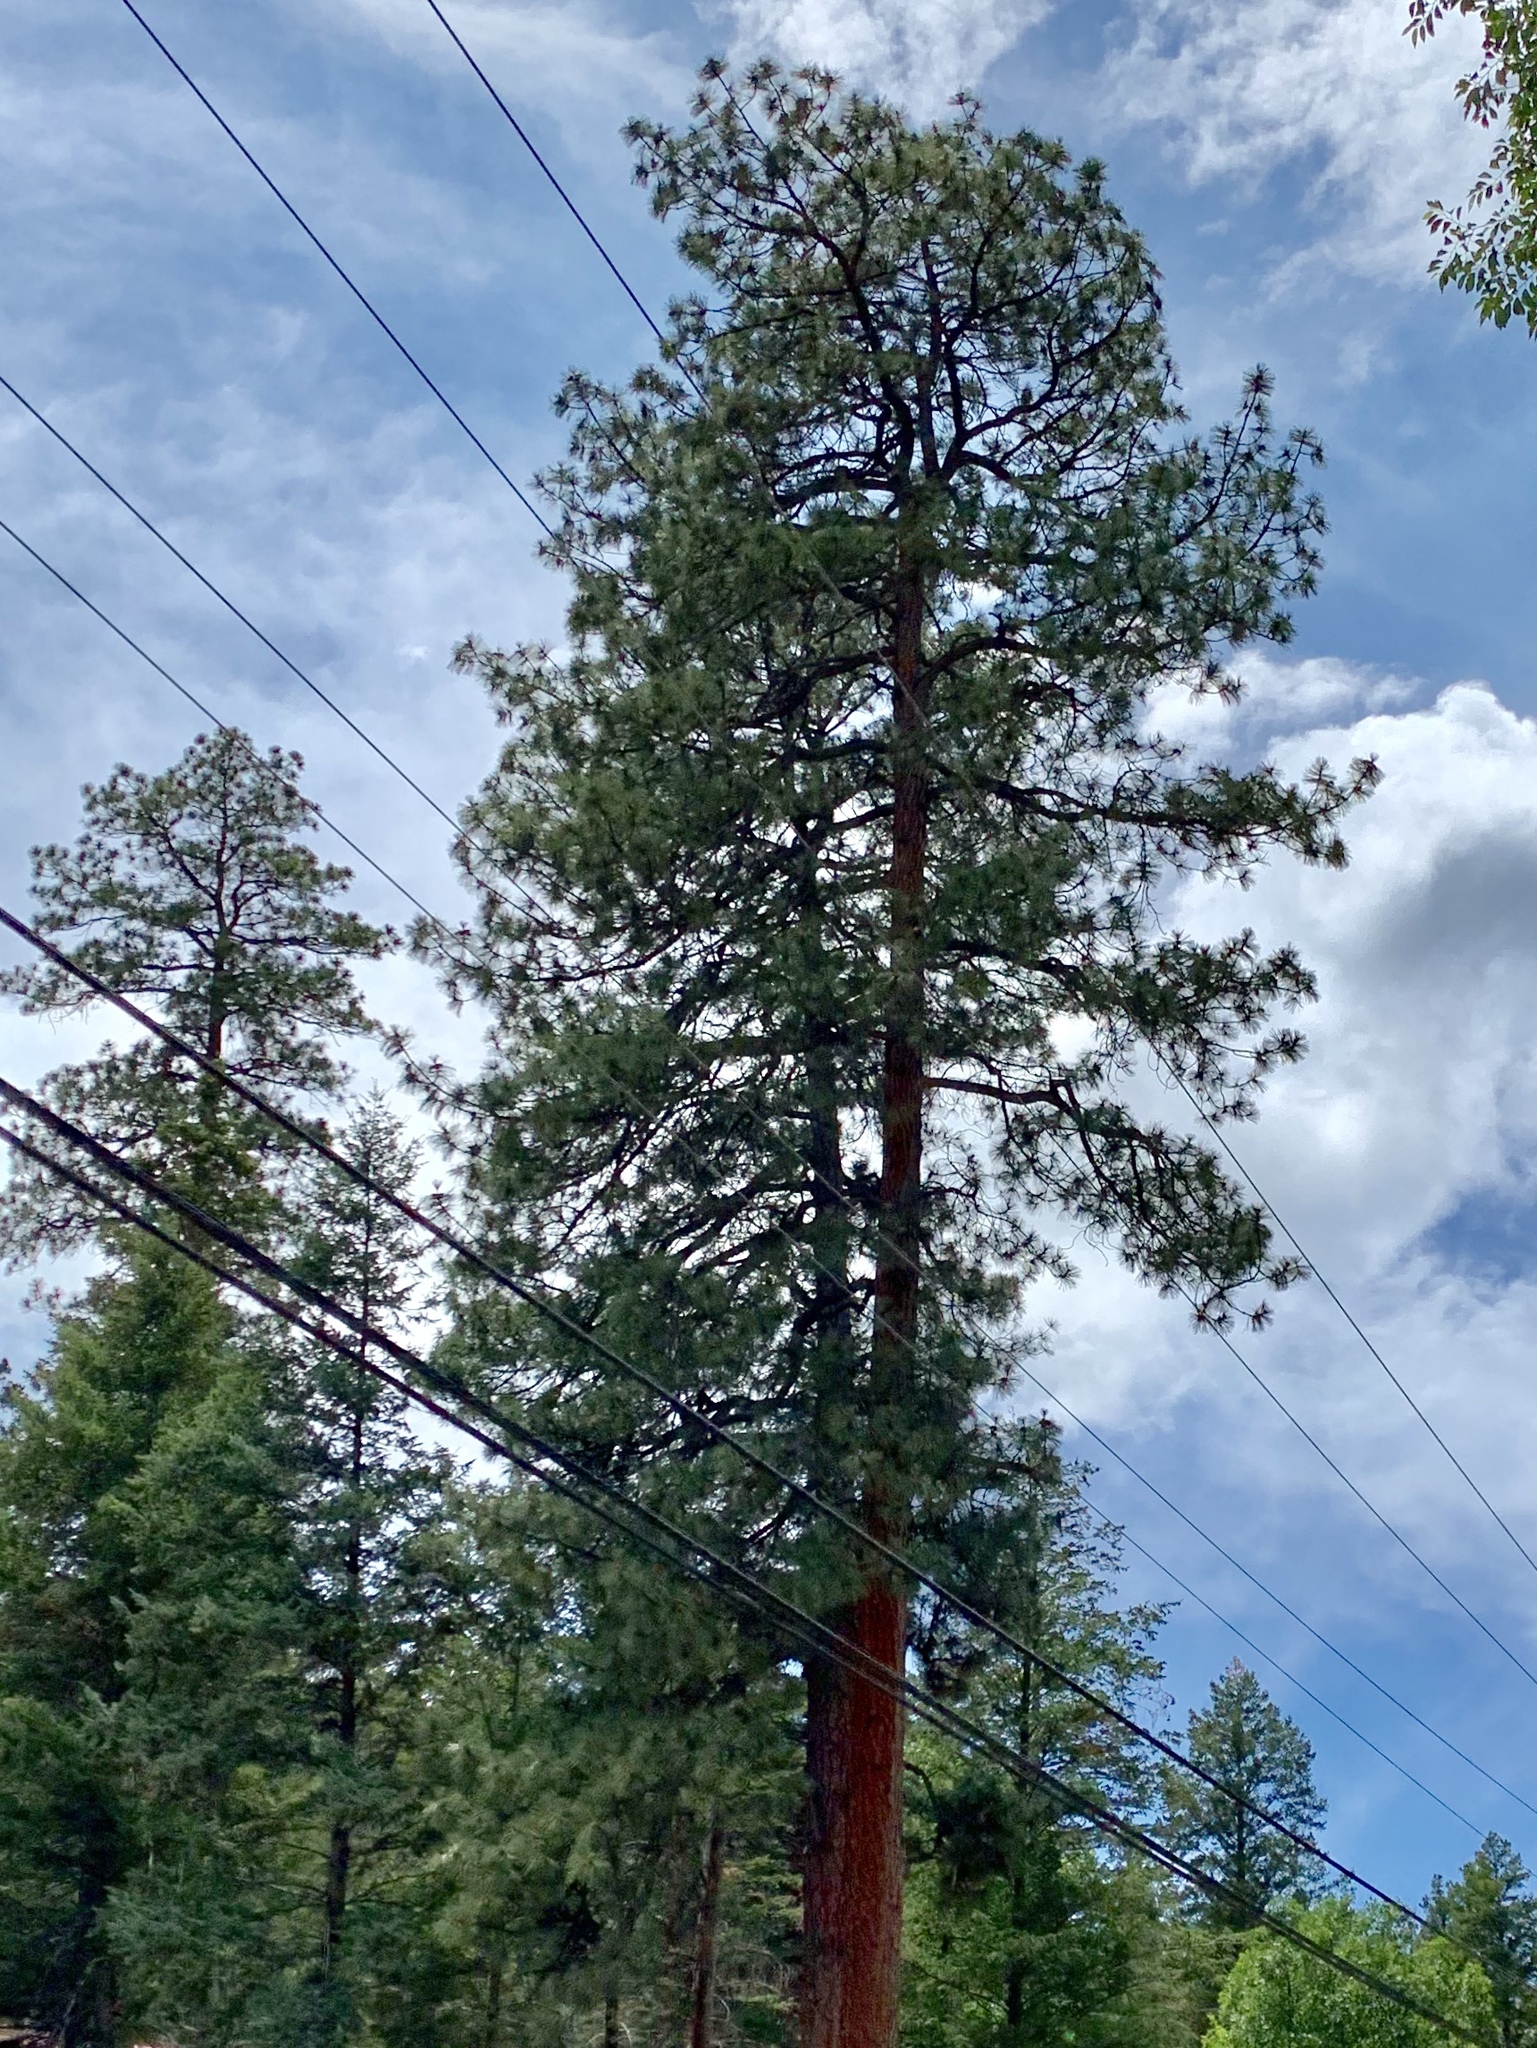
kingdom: Plantae
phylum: Tracheophyta
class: Pinopsida
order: Pinales
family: Pinaceae
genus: Pinus
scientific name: Pinus ponderosa
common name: Western yellow-pine
